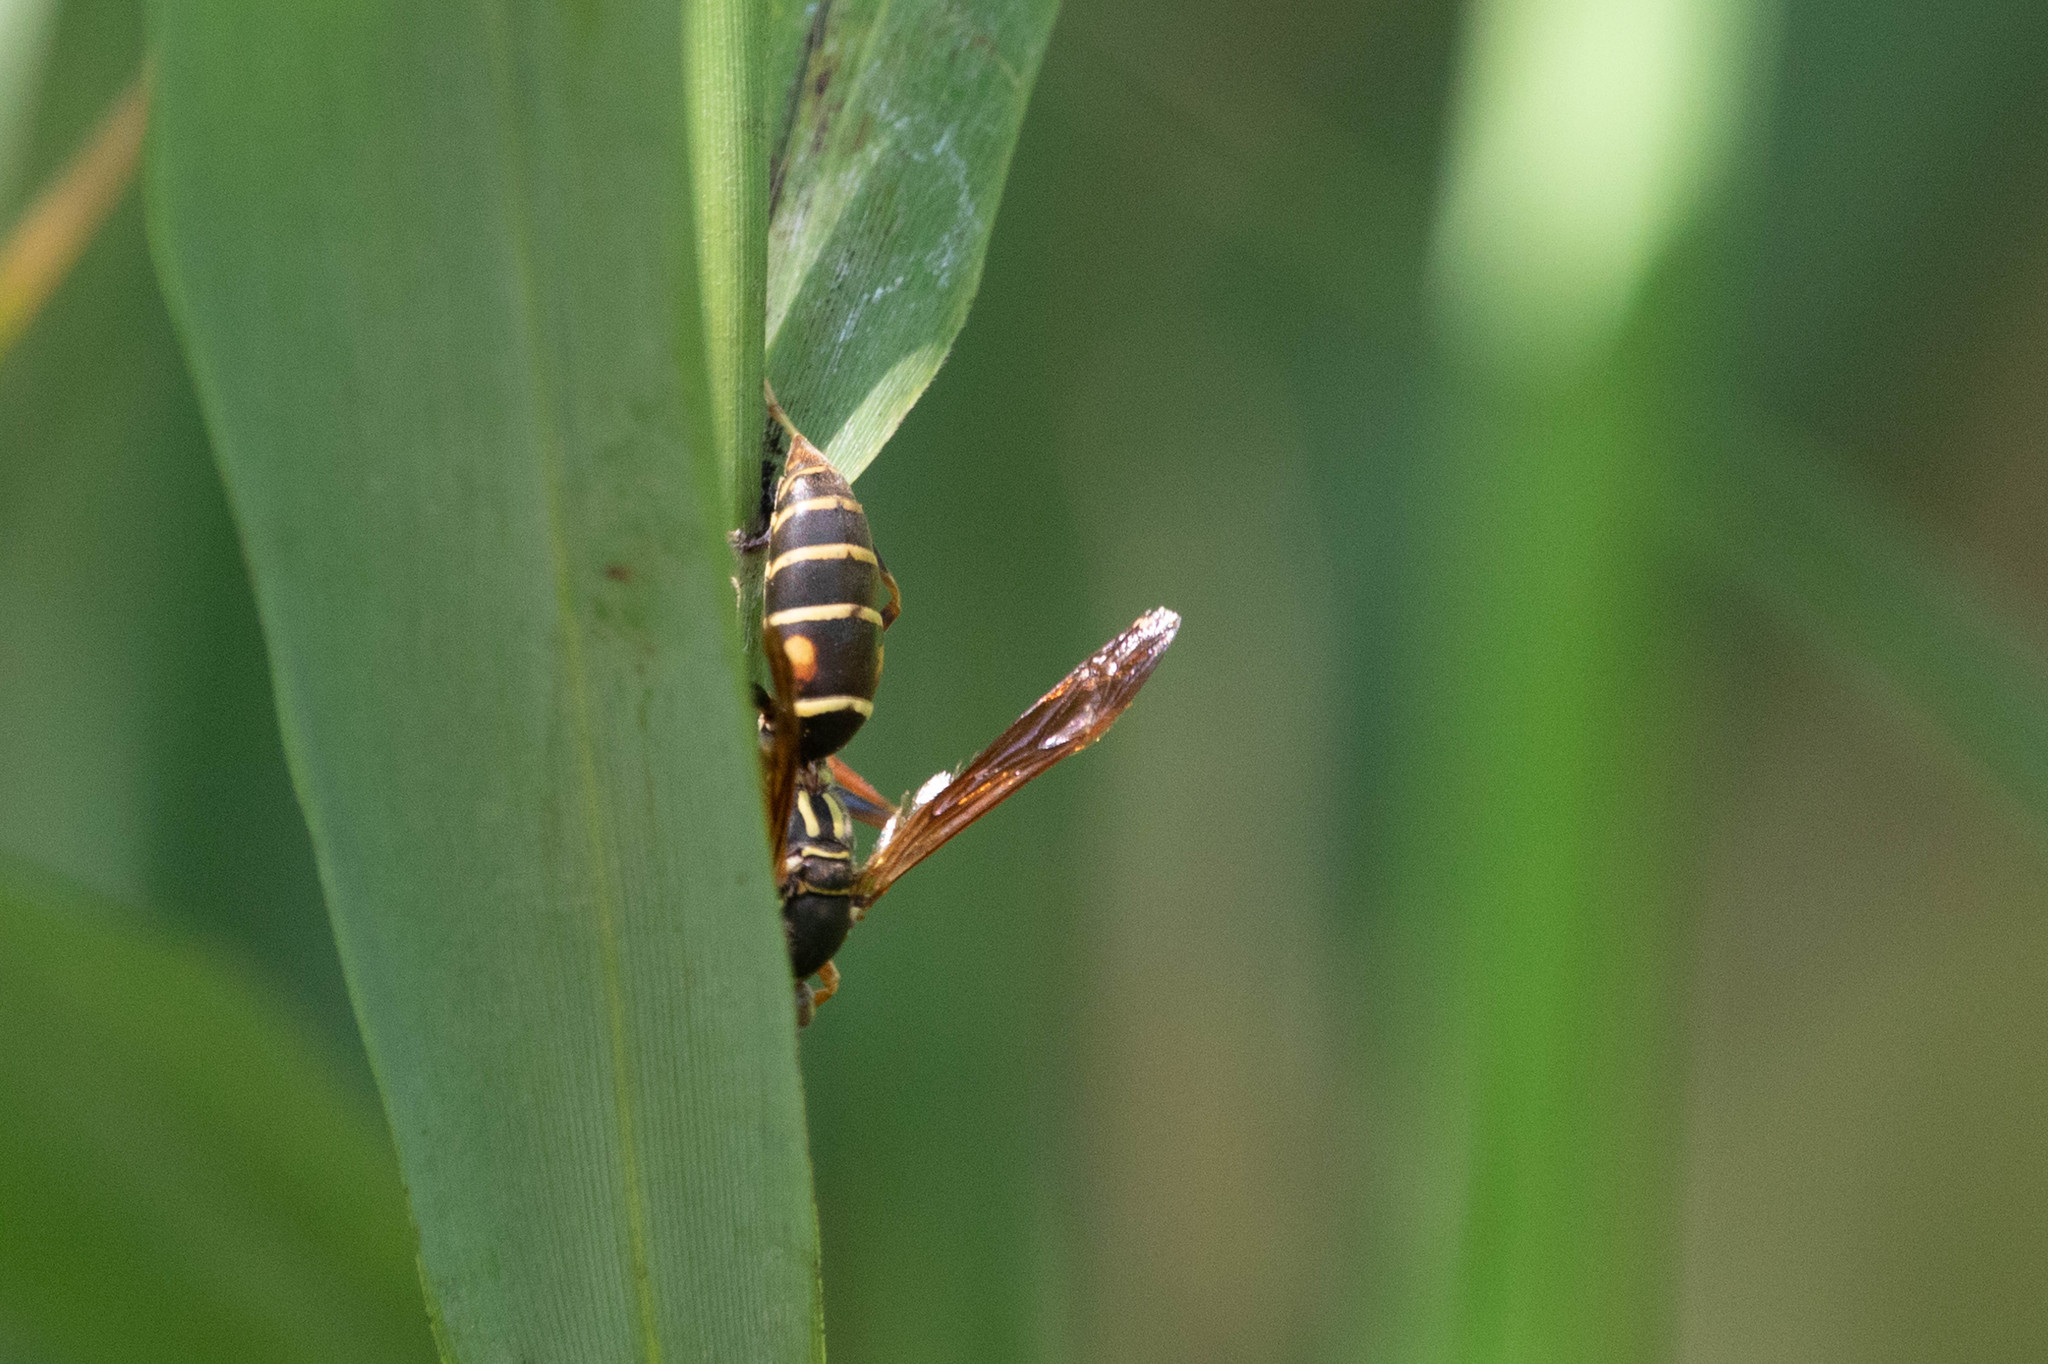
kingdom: Animalia
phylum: Arthropoda
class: Insecta
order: Hymenoptera
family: Eumenidae
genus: Polistes
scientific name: Polistes fuscatus
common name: Dark paper wasp
